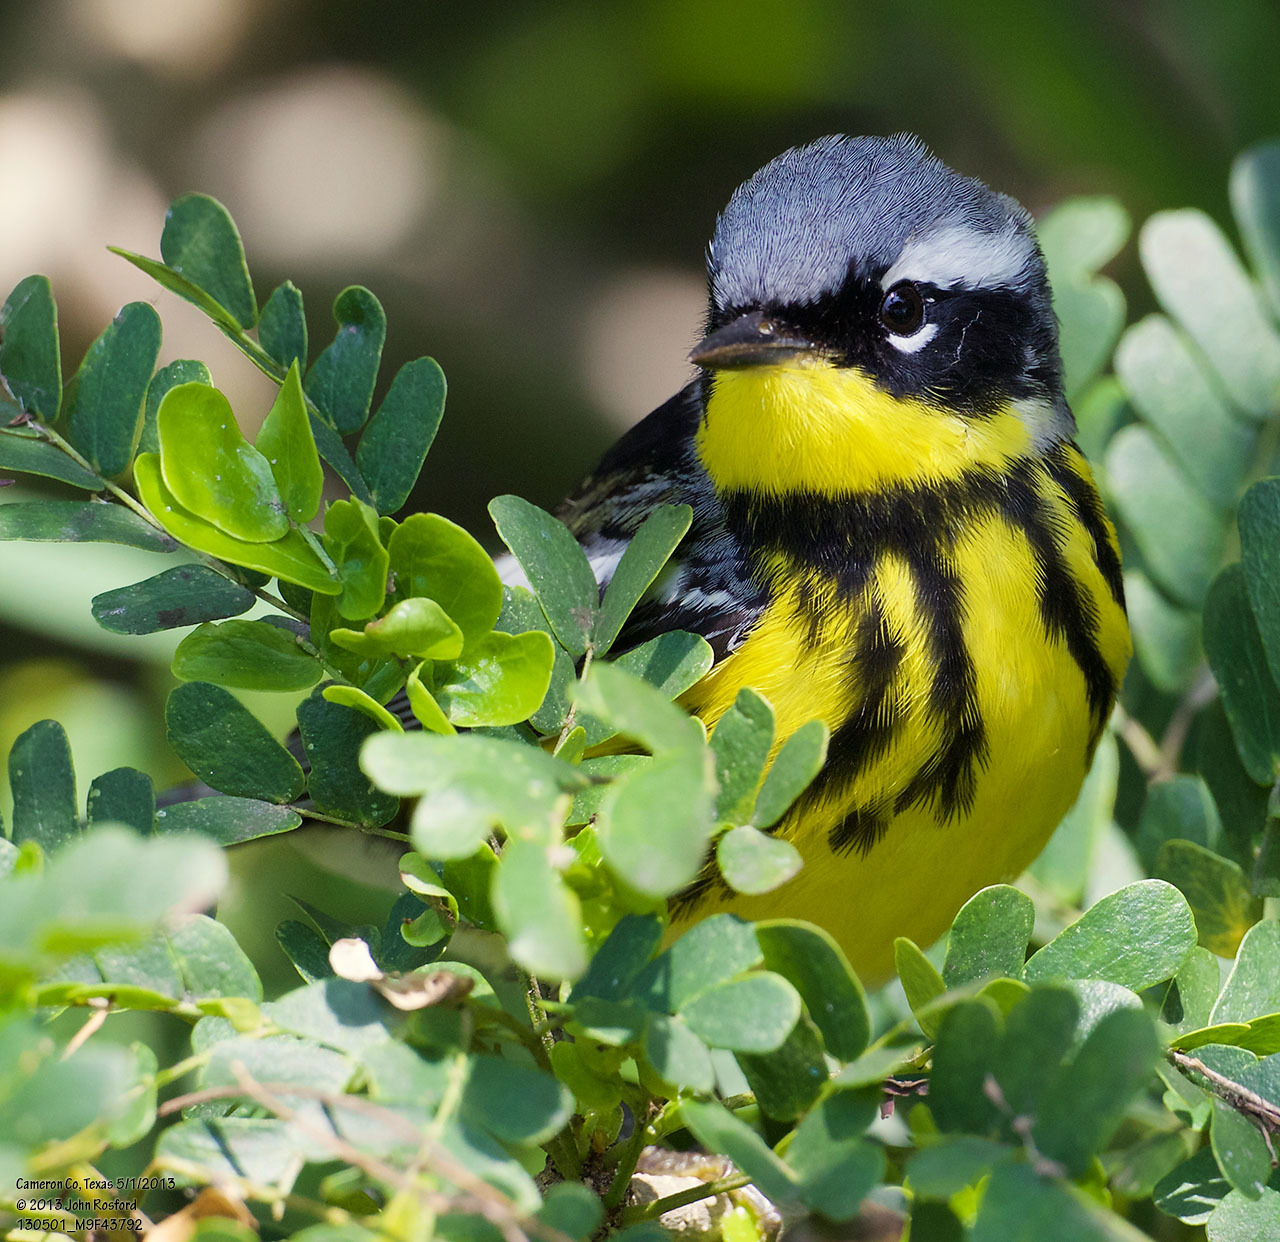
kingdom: Animalia
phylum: Chordata
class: Aves
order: Passeriformes
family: Parulidae
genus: Setophaga
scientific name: Setophaga magnolia
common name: Magnolia warbler
